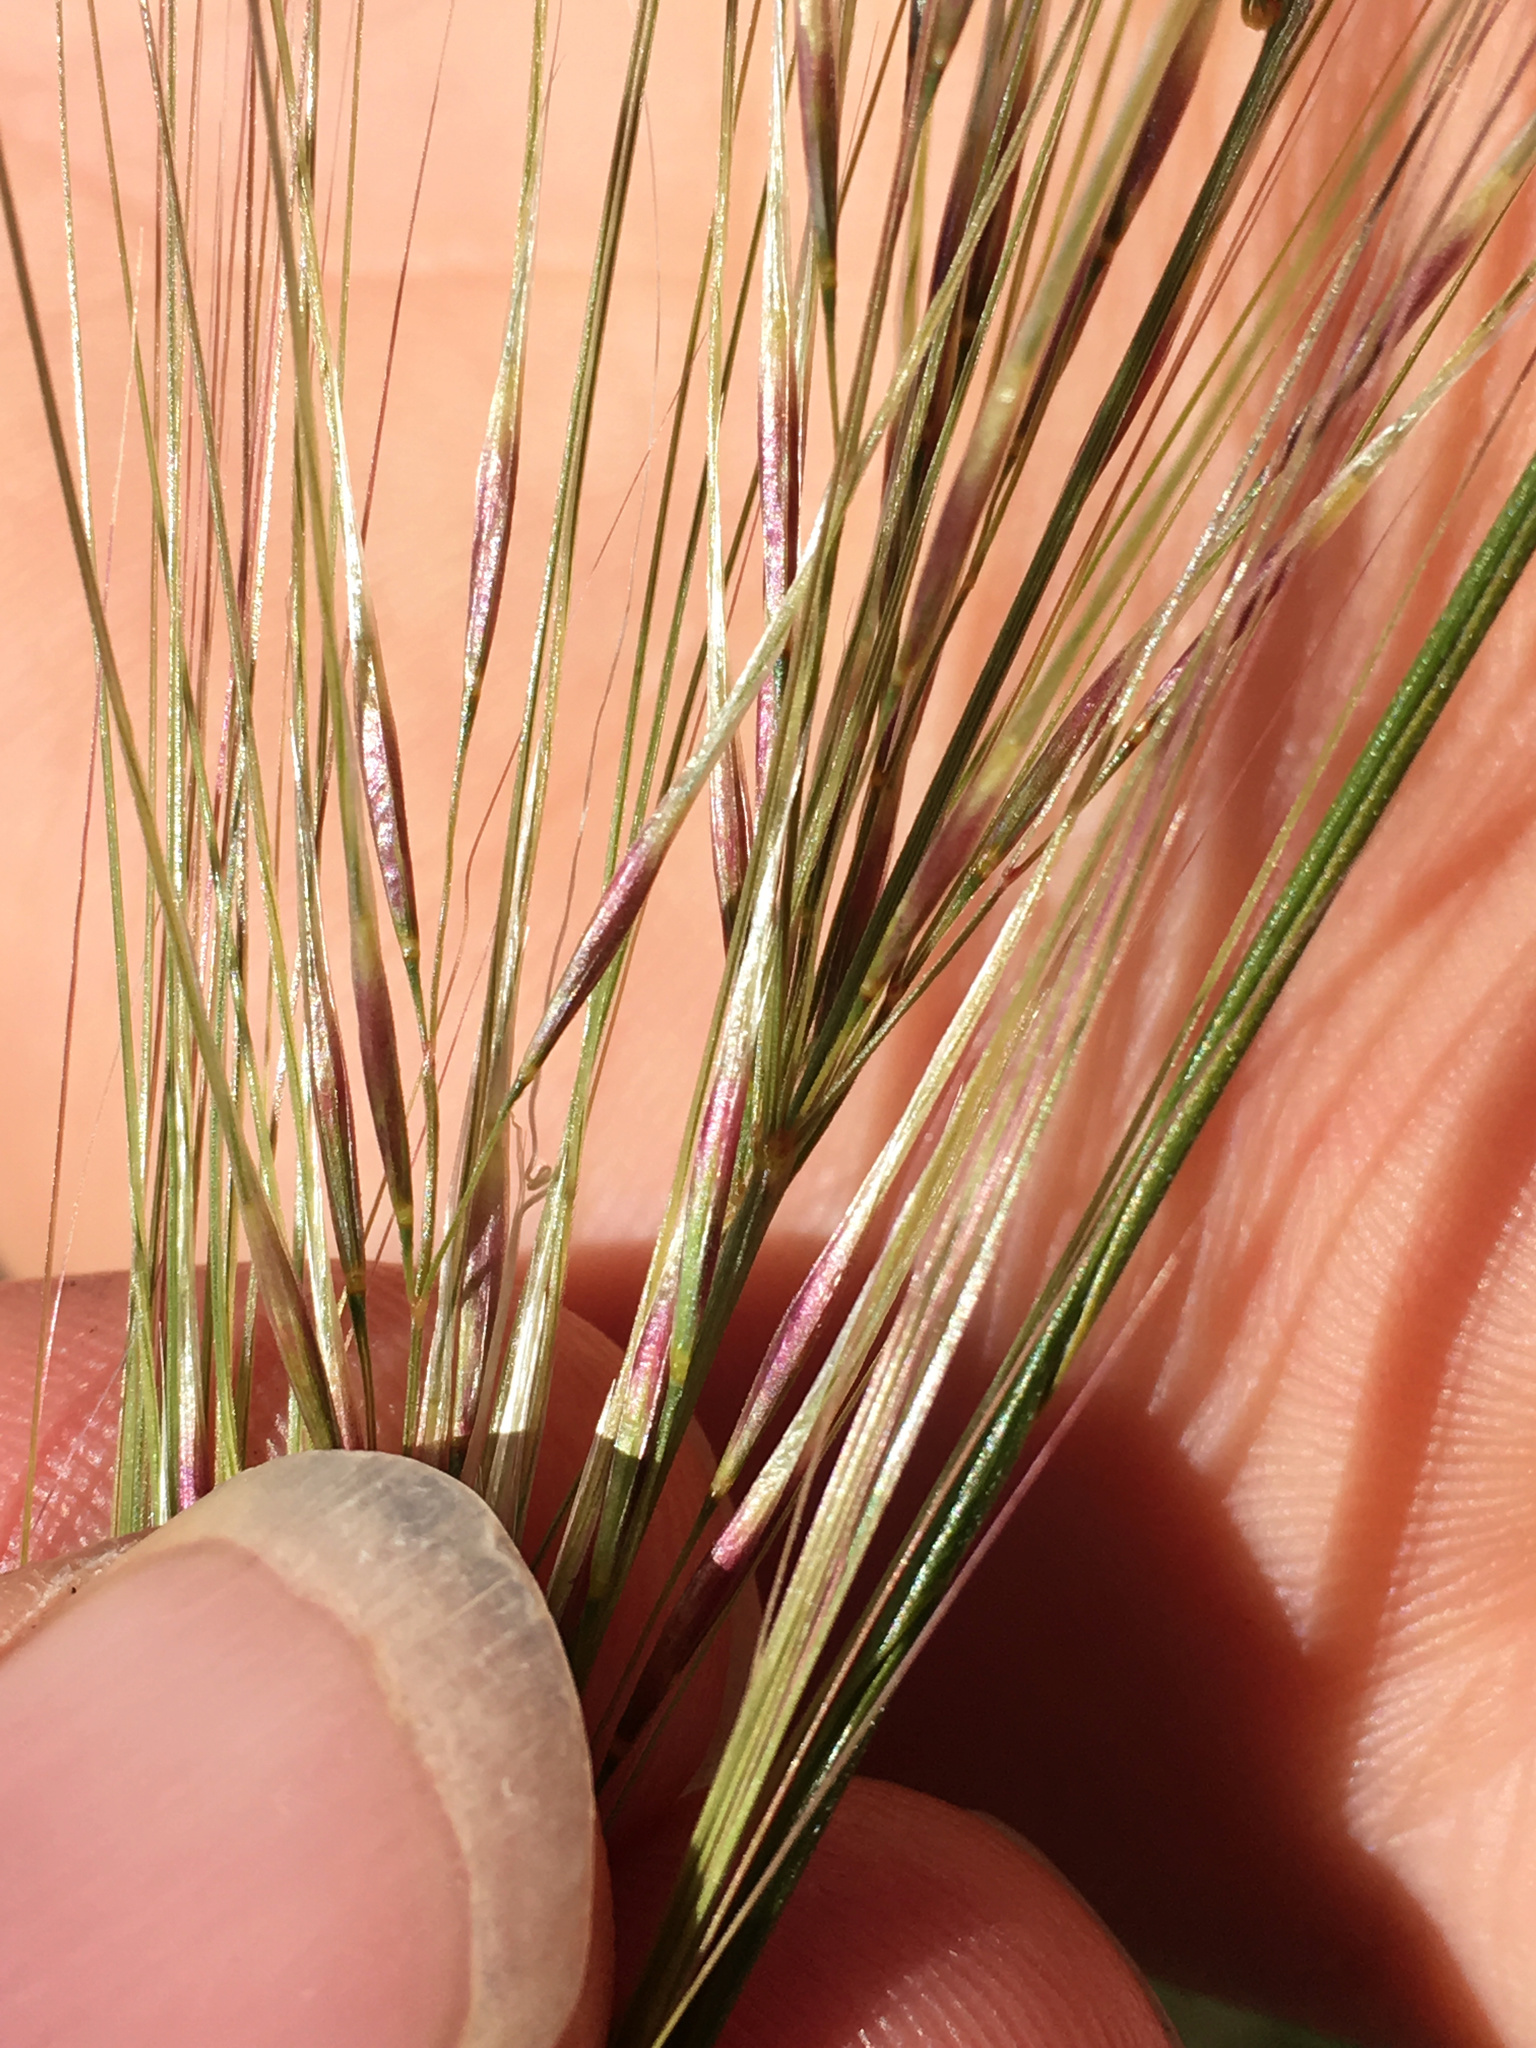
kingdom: Plantae
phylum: Tracheophyta
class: Liliopsida
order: Poales
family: Poaceae
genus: Austrostipa
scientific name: Austrostipa bigeniculata
